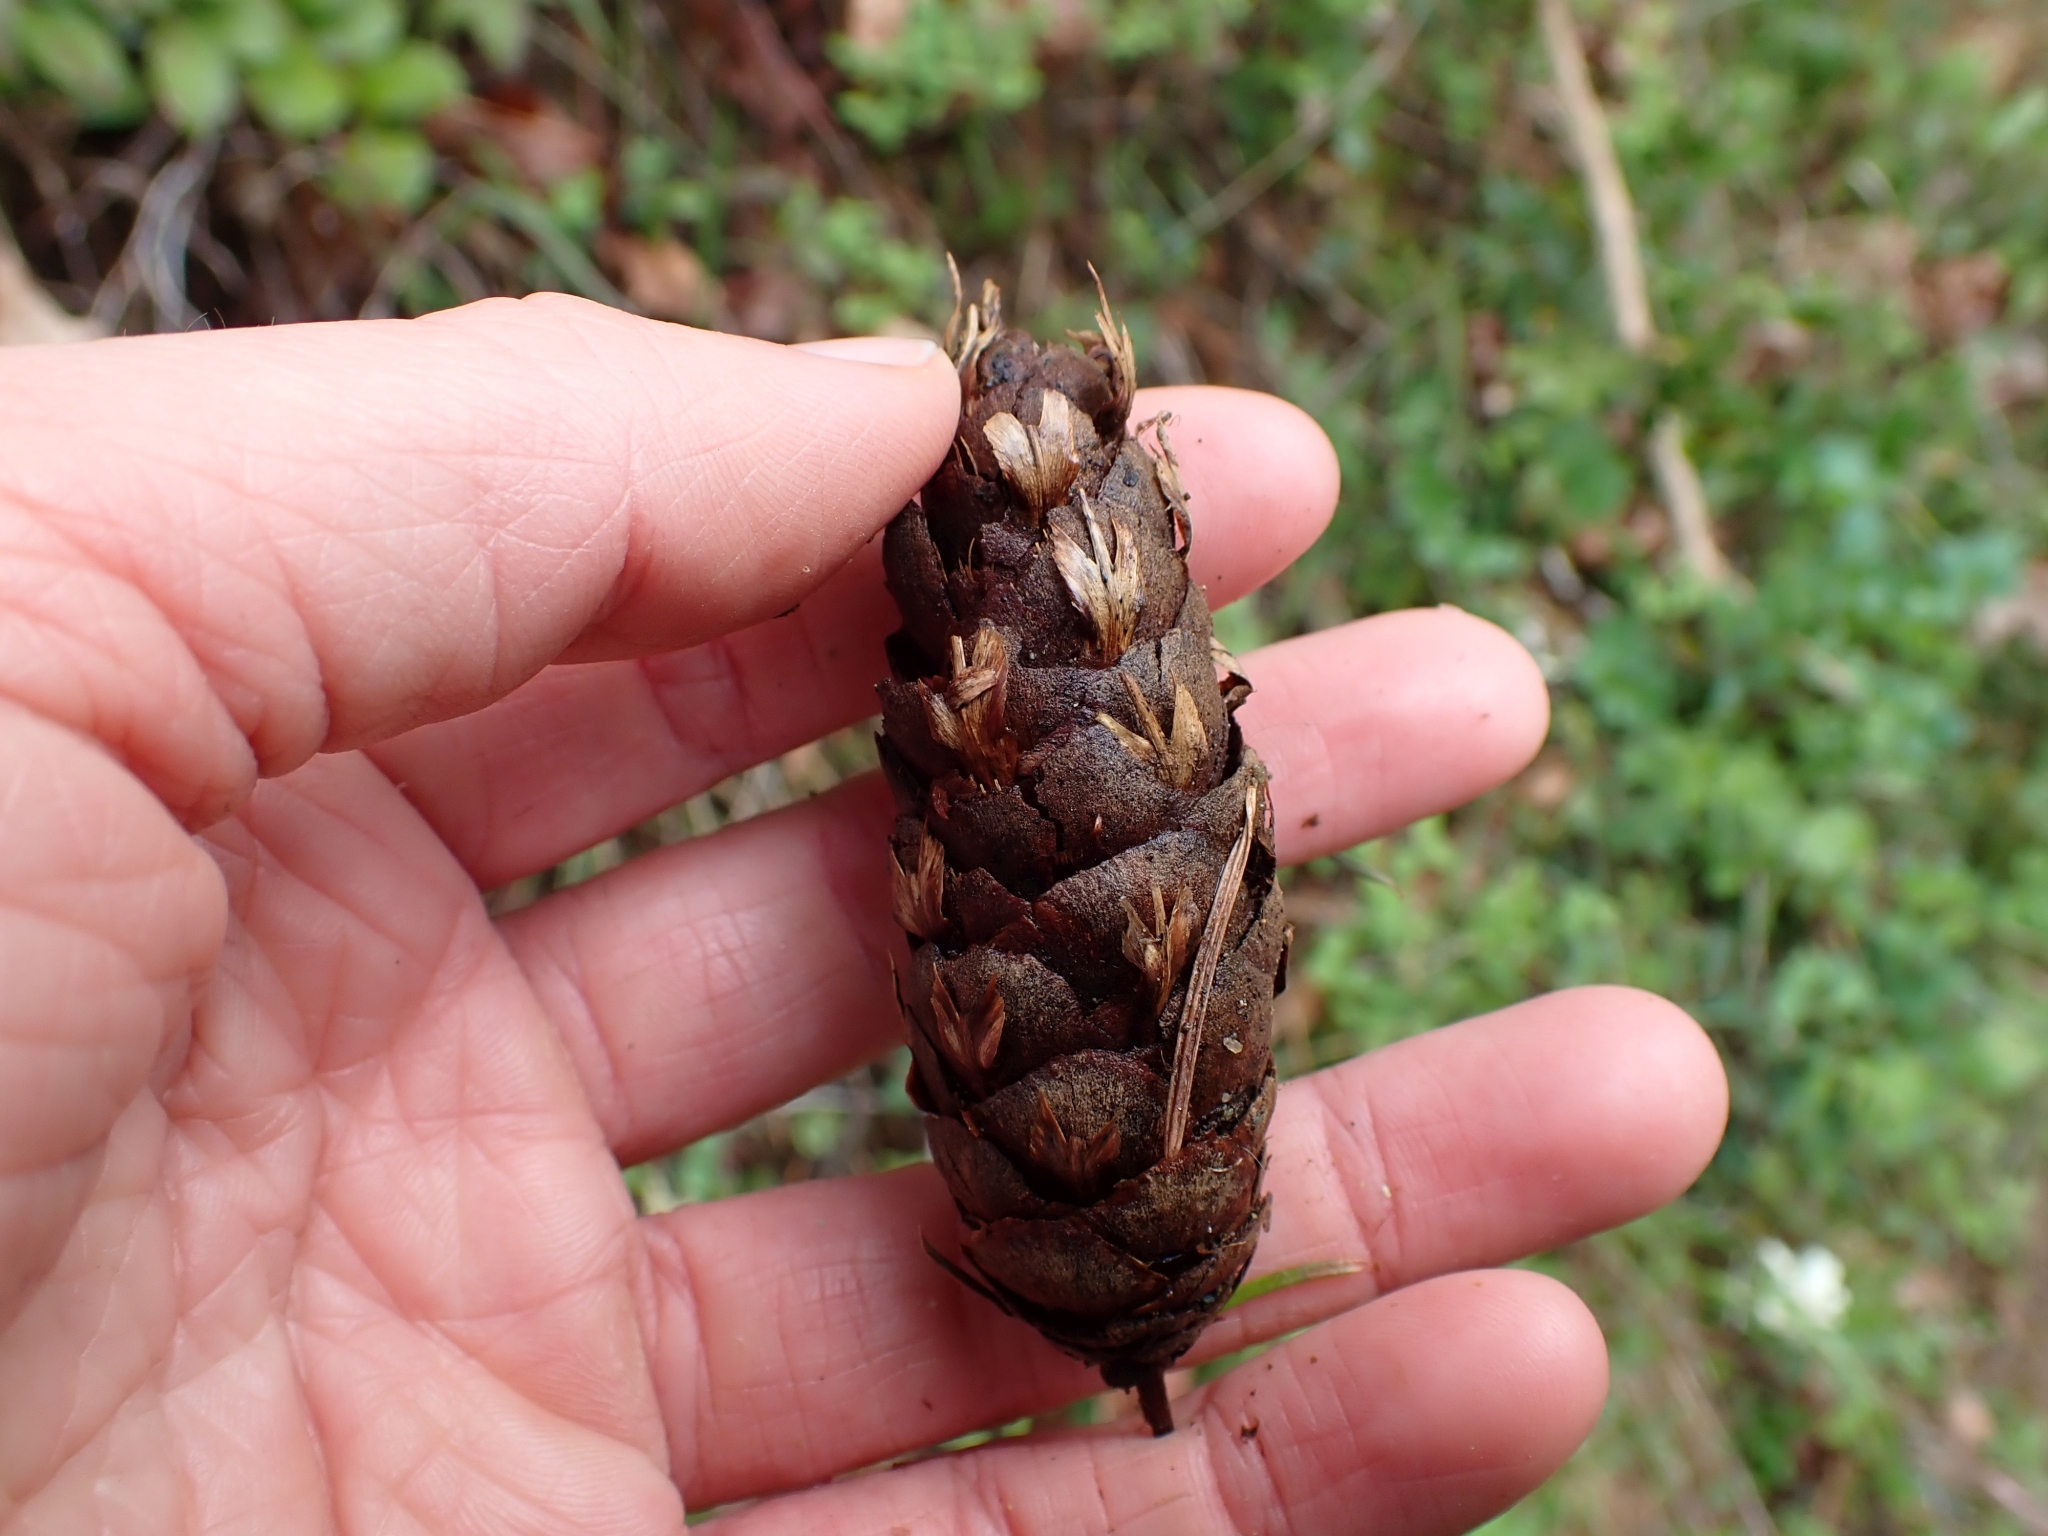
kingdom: Plantae
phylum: Tracheophyta
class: Pinopsida
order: Pinales
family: Pinaceae
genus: Pseudotsuga
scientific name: Pseudotsuga menziesii
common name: Douglas fir
